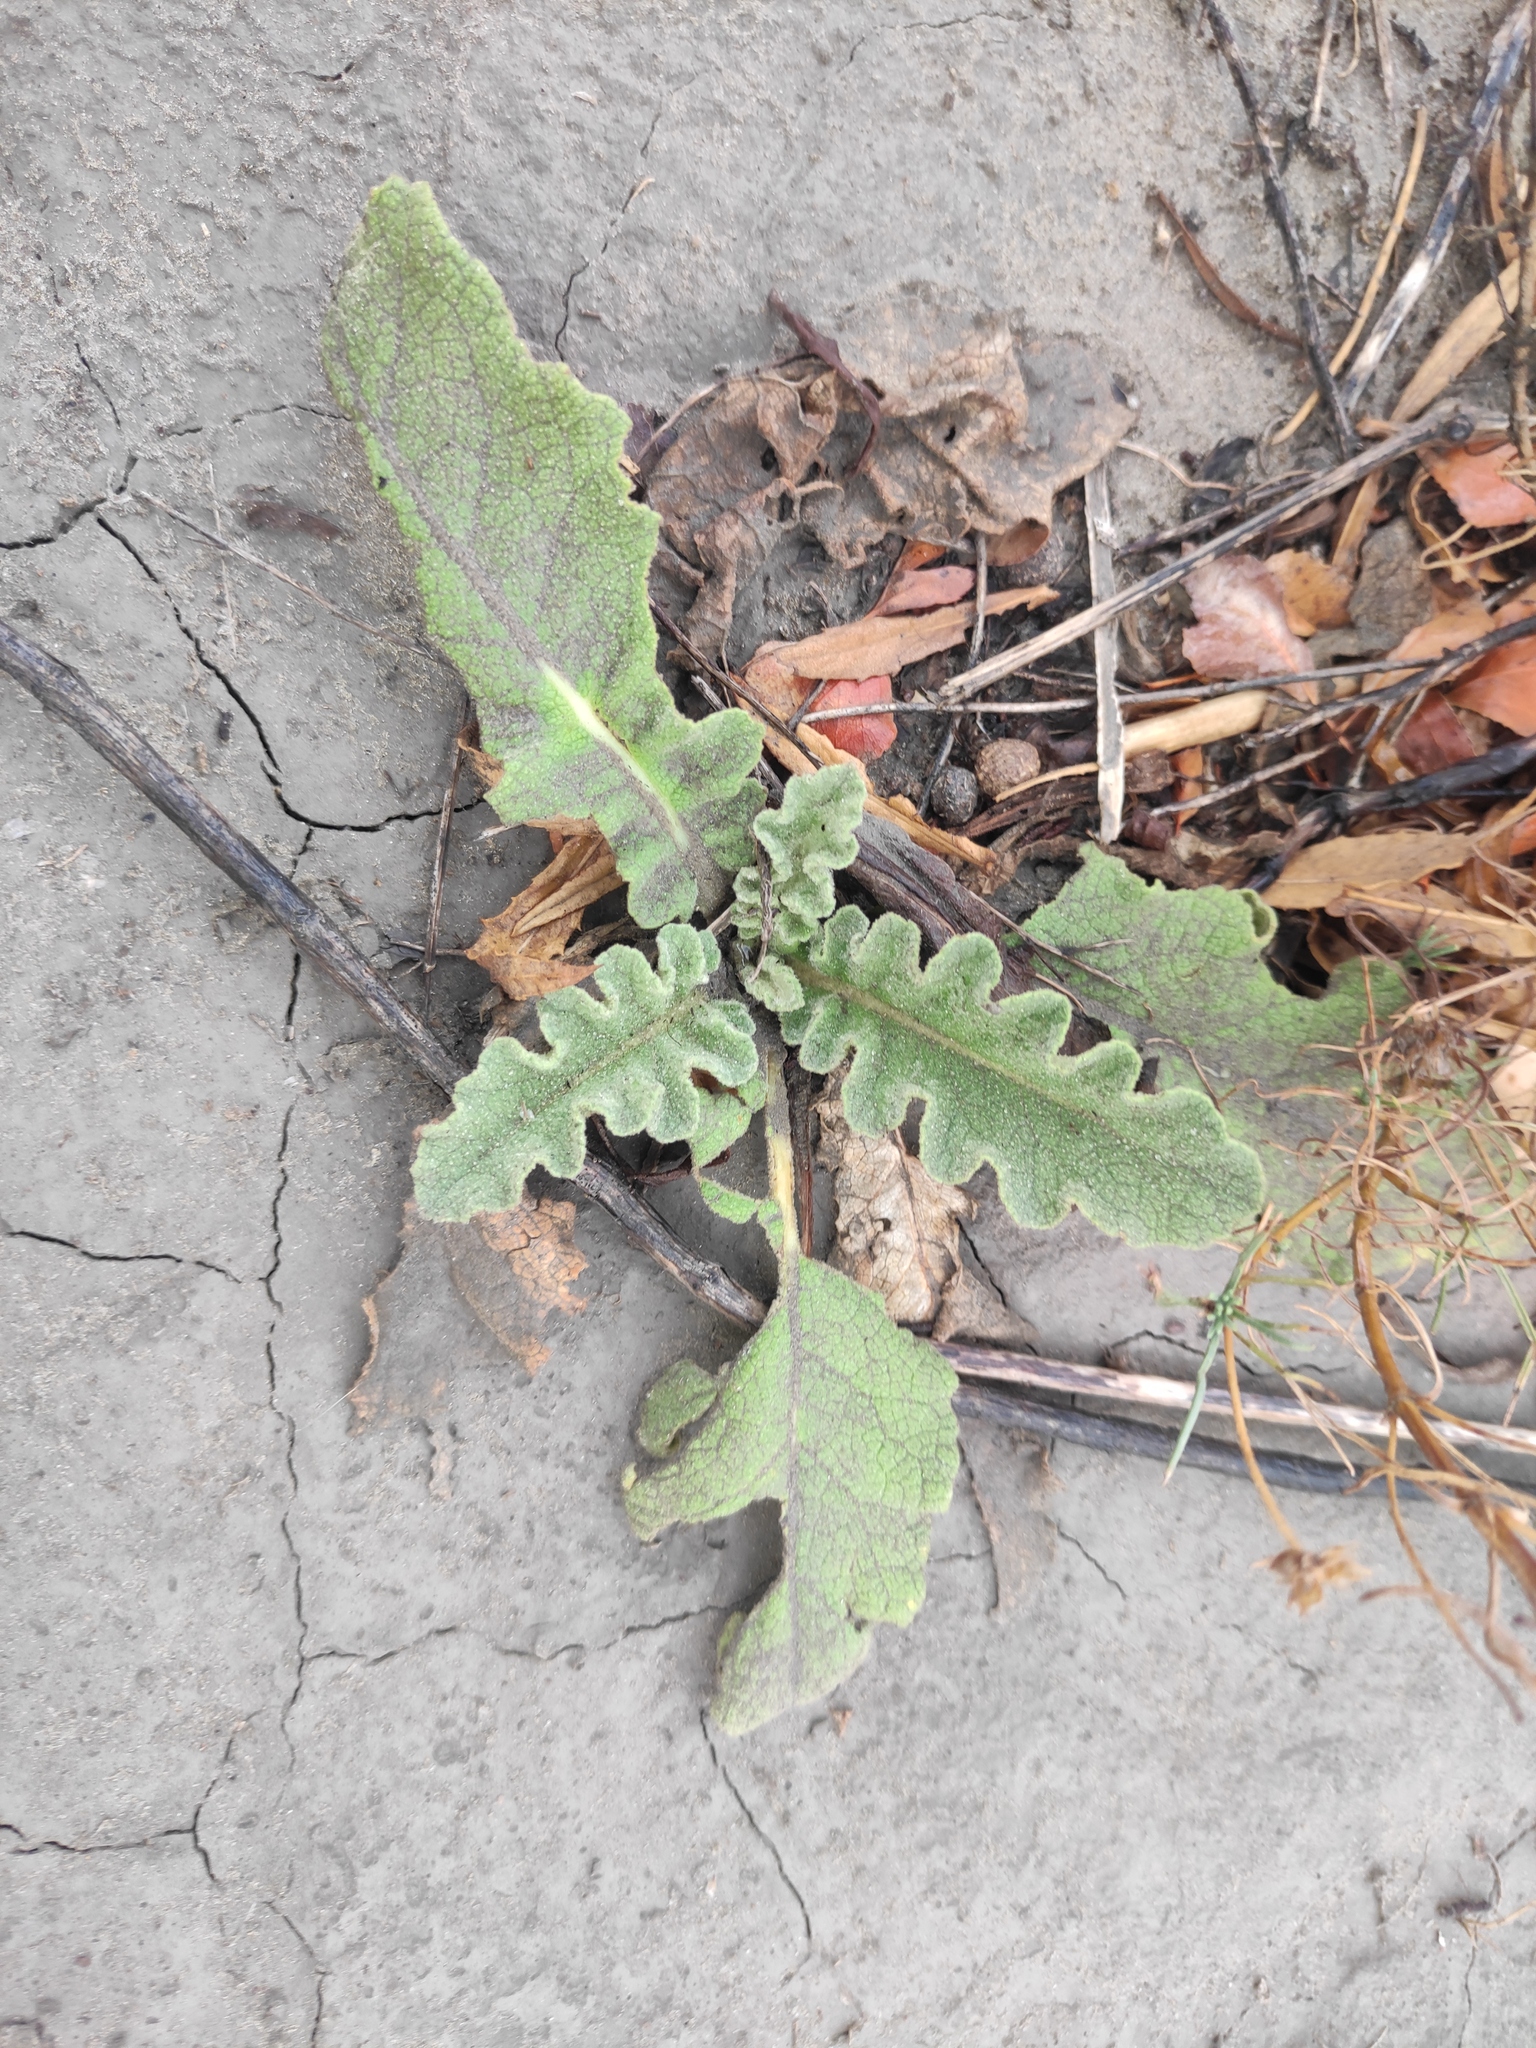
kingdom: Plantae
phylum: Tracheophyta
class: Magnoliopsida
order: Lamiales
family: Scrophulariaceae
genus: Verbascum
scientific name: Verbascum sinuatum
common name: Wavyleaf mullein
